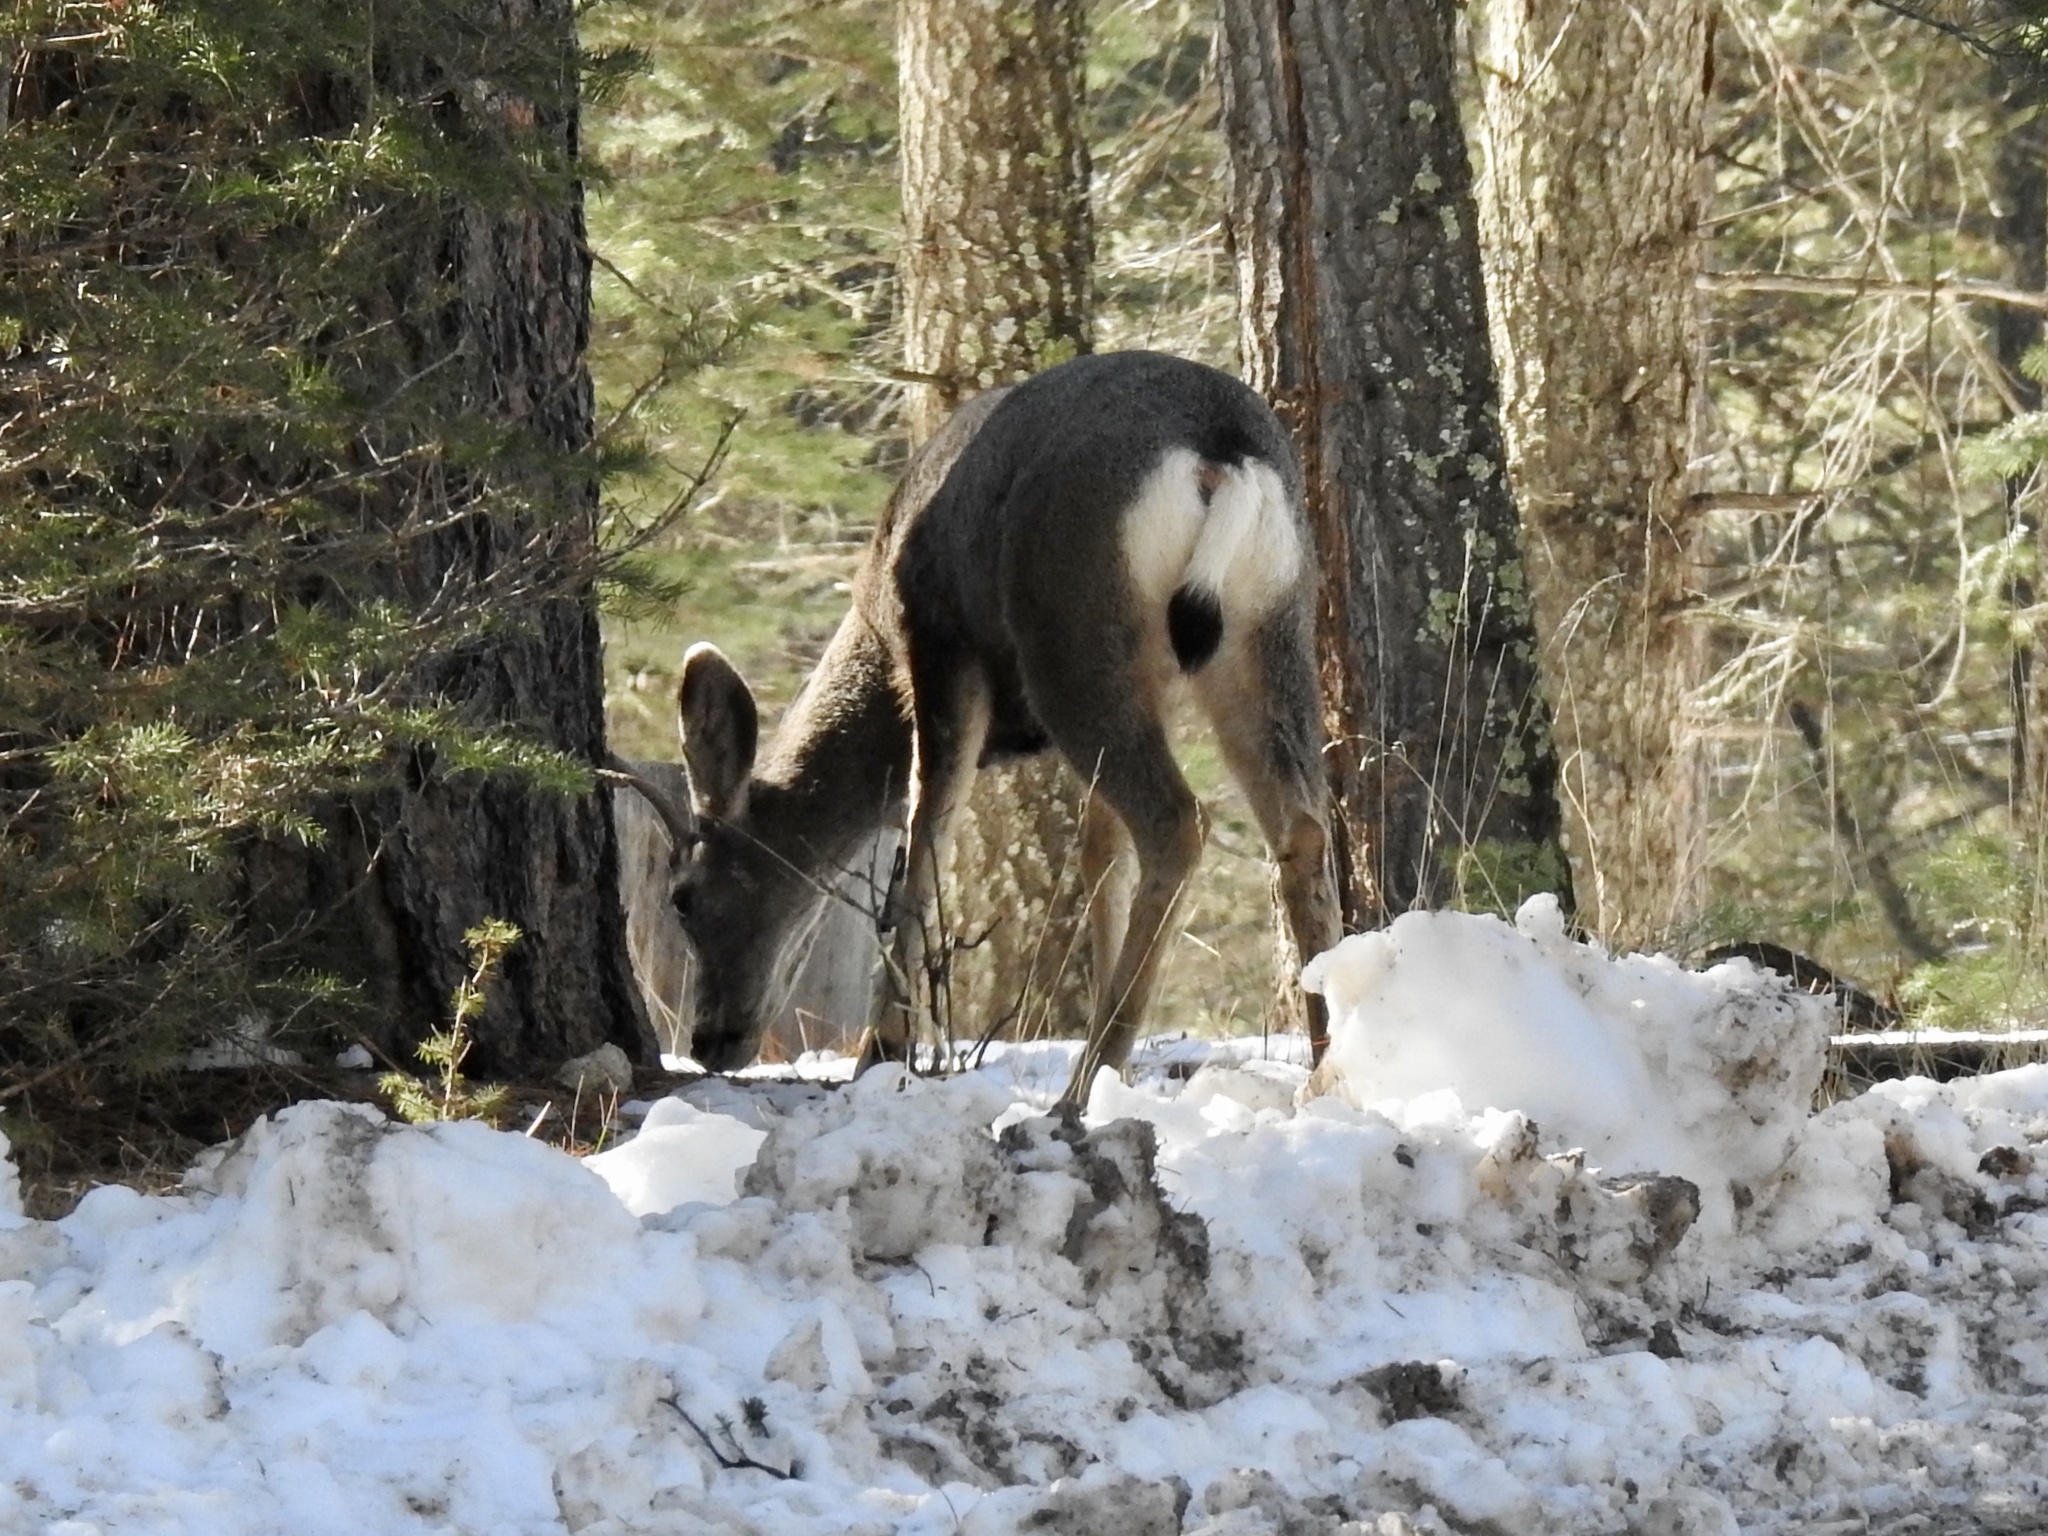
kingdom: Animalia
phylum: Chordata
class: Mammalia
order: Artiodactyla
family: Cervidae
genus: Odocoileus
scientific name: Odocoileus hemionus
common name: Mule deer
